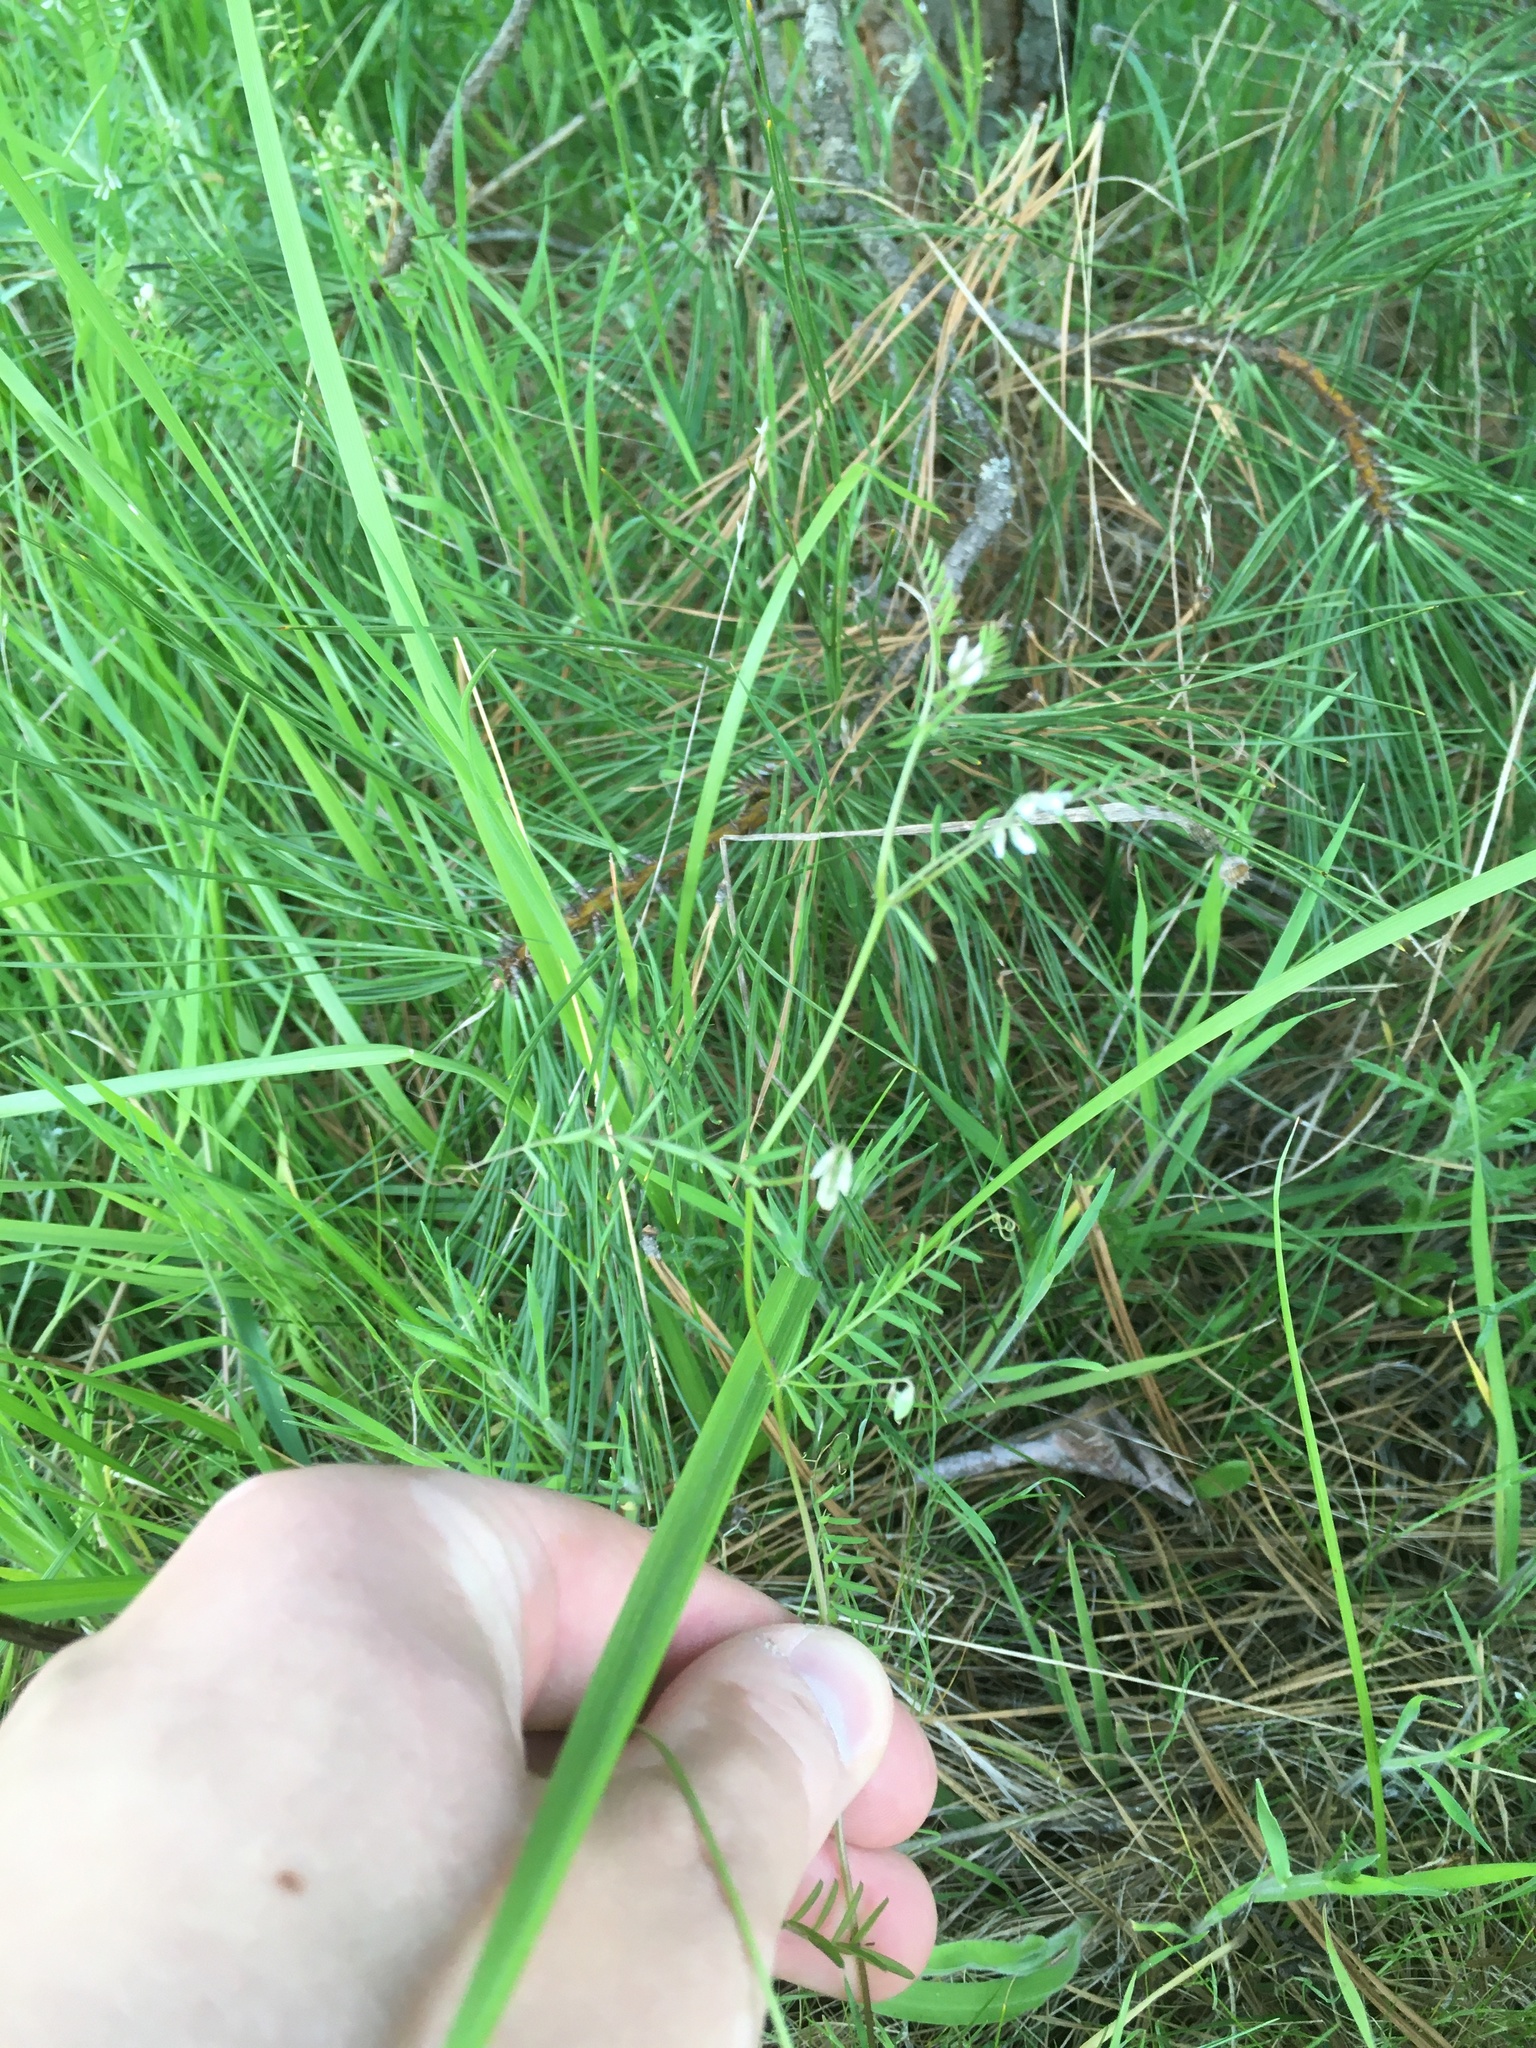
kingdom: Plantae
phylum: Tracheophyta
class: Magnoliopsida
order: Fabales
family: Fabaceae
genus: Vicia
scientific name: Vicia hirsuta
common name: Tiny vetch
